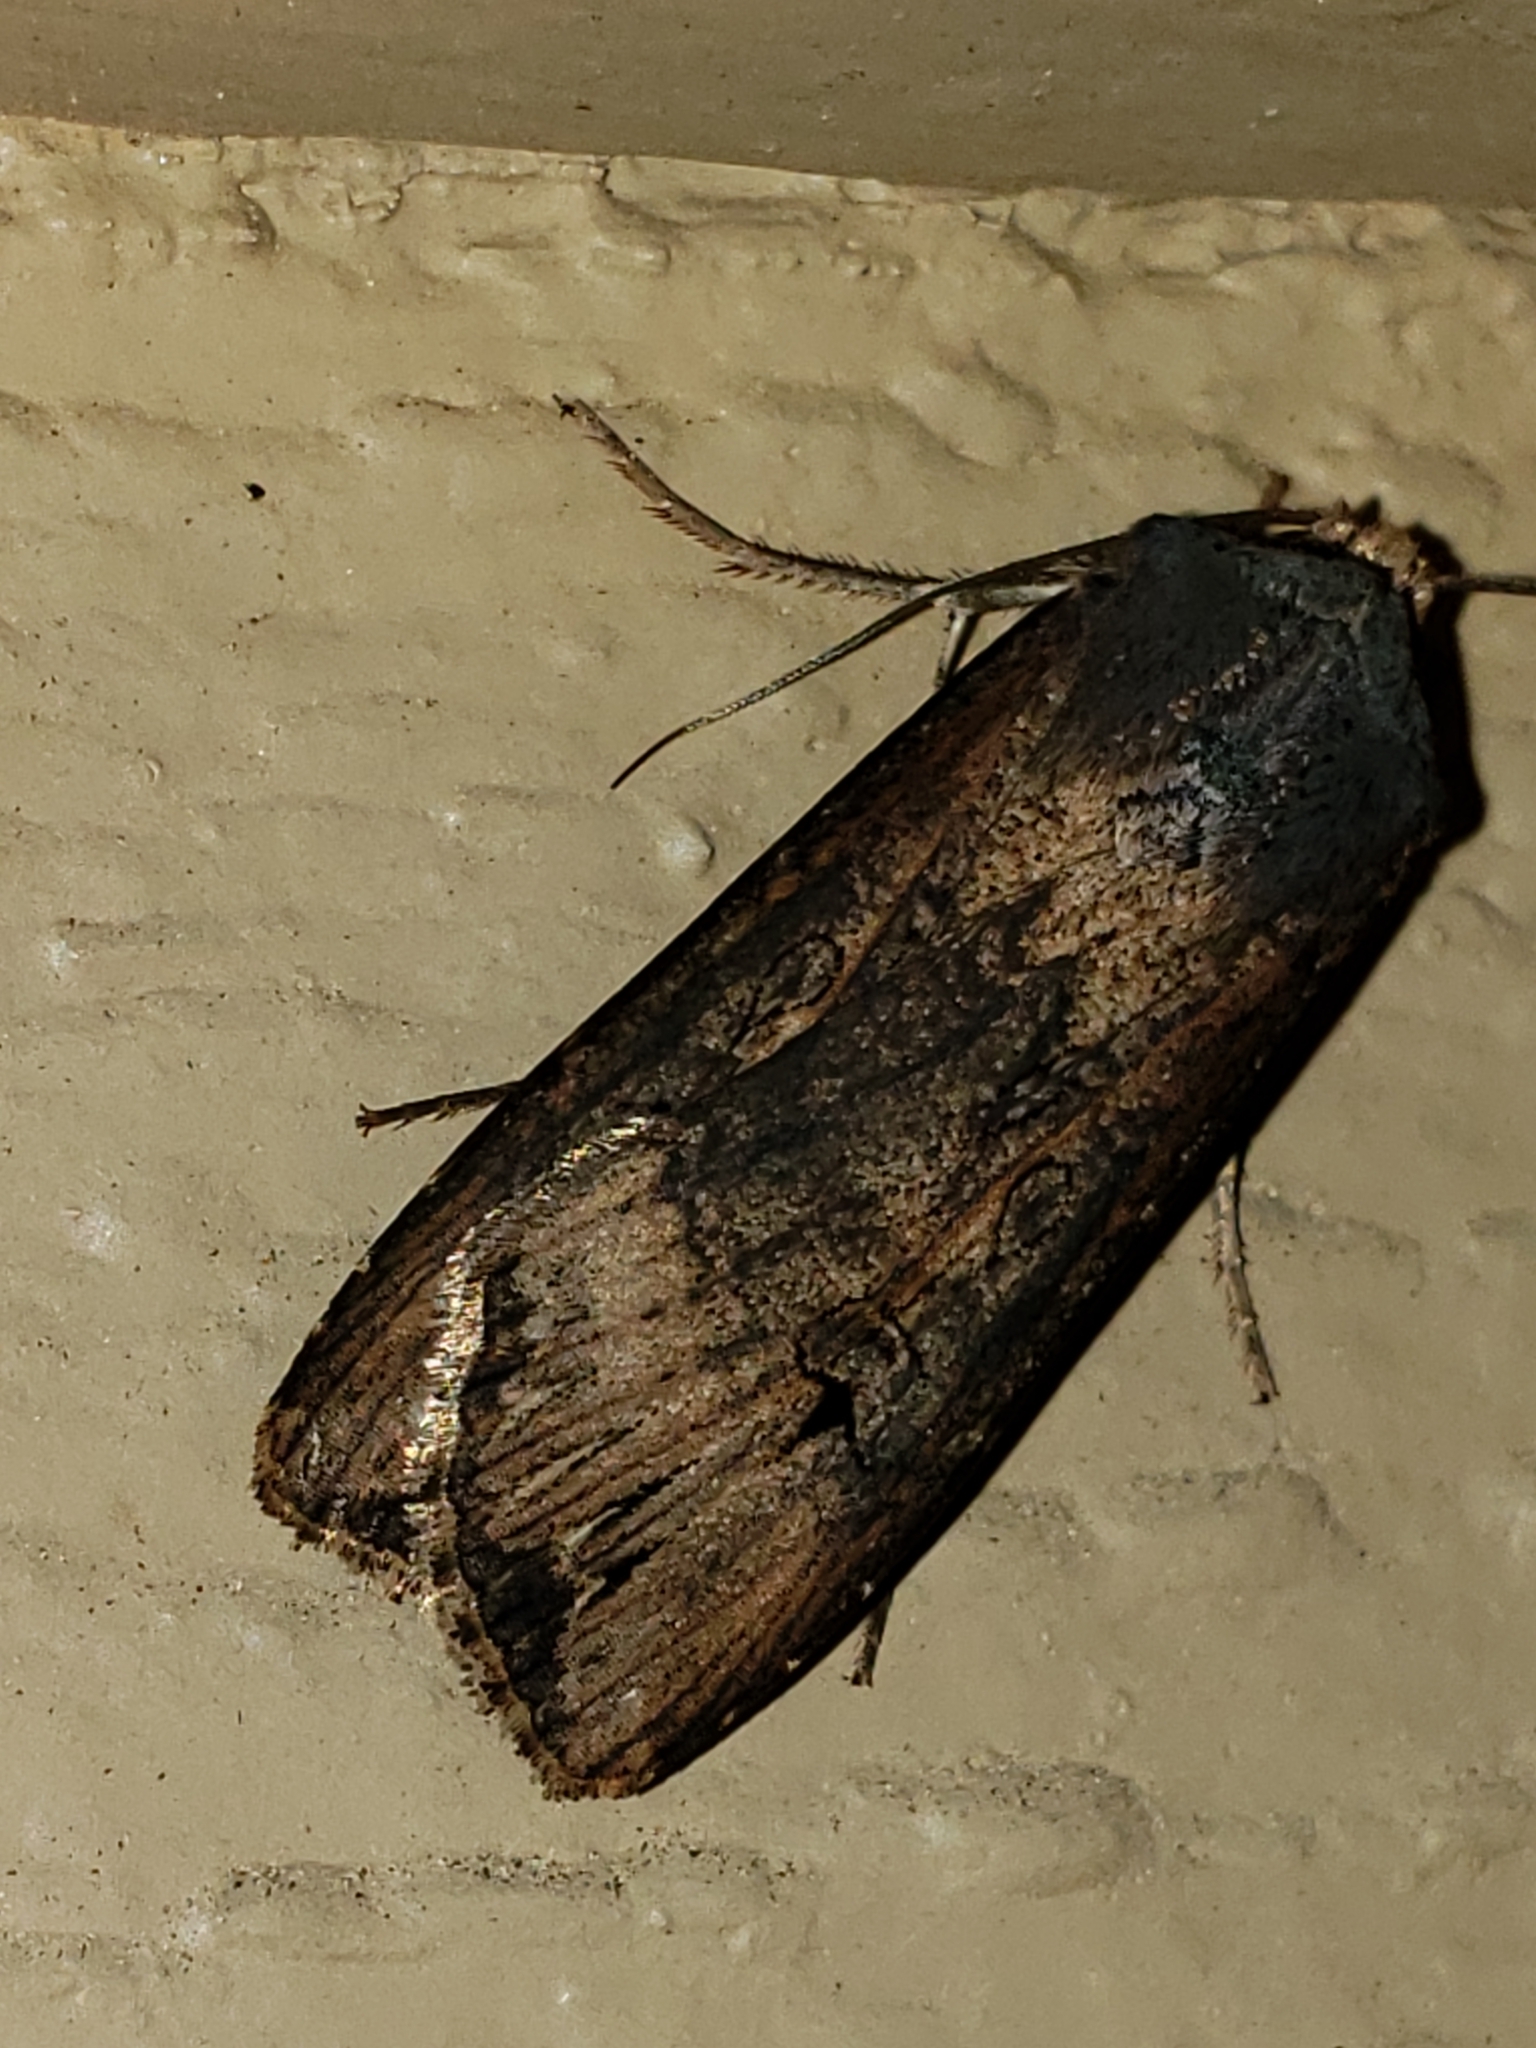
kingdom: Animalia
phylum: Arthropoda
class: Insecta
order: Lepidoptera
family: Noctuidae
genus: Agrotis
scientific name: Agrotis ipsilon
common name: Dark sword-grass
